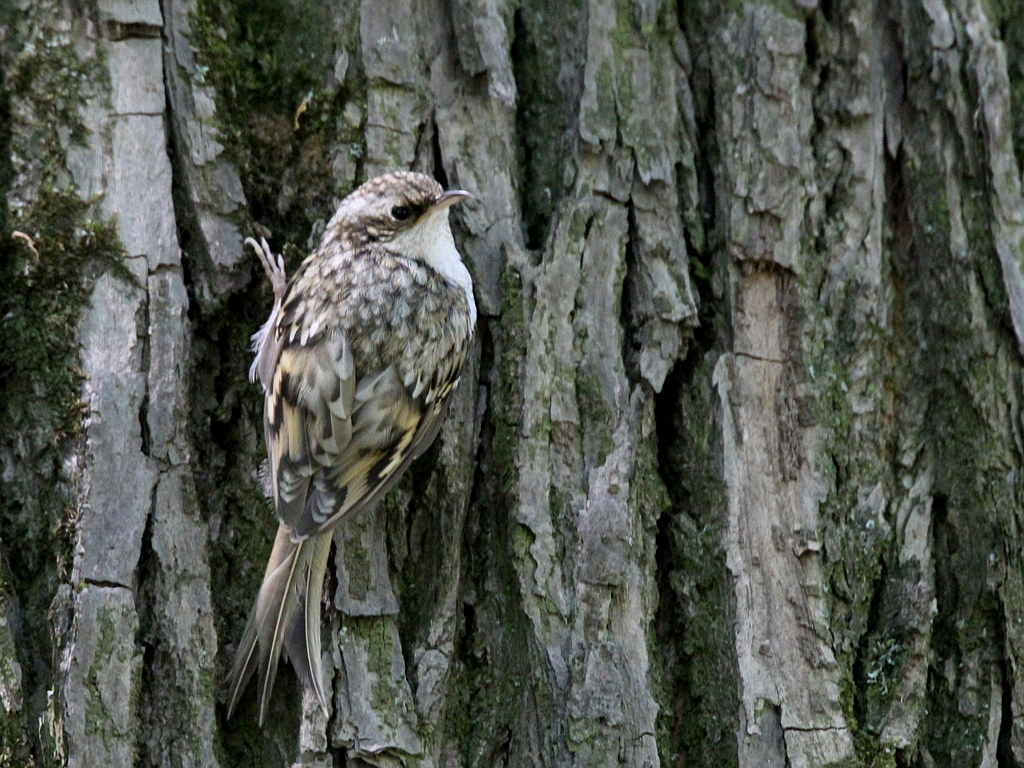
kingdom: Animalia
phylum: Chordata
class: Aves
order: Passeriformes
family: Certhiidae
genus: Certhia
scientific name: Certhia familiaris
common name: Eurasian treecreeper
